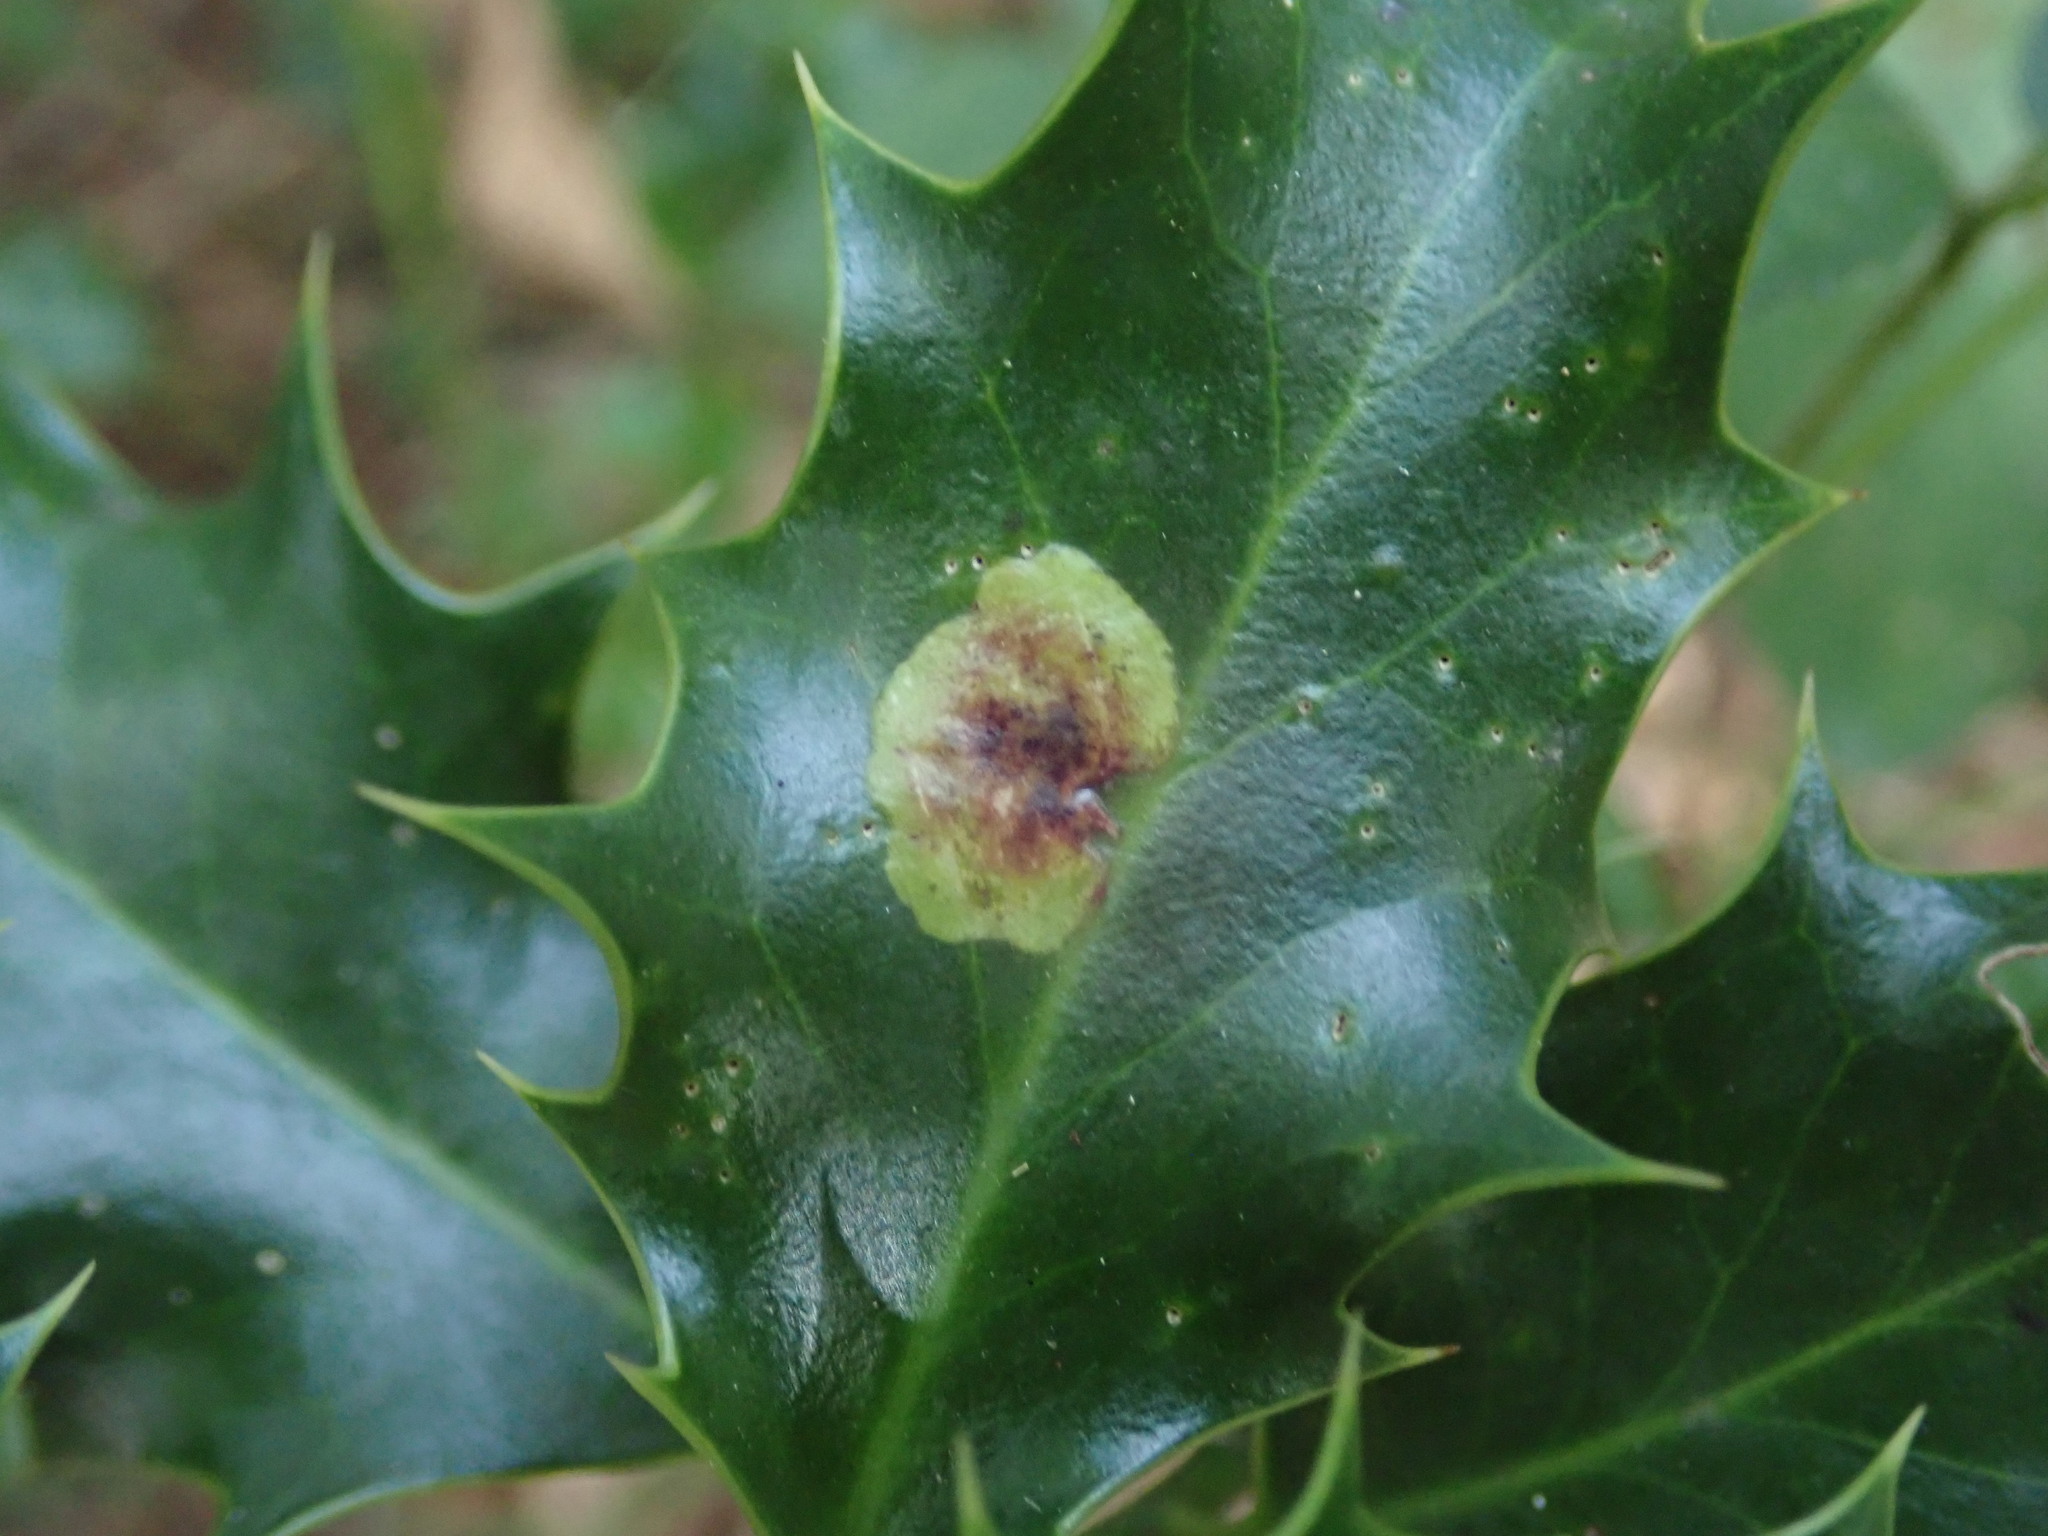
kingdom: Animalia
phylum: Arthropoda
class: Insecta
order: Diptera
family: Agromyzidae
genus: Phytomyza
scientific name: Phytomyza ilicis
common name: Holly leafminer
